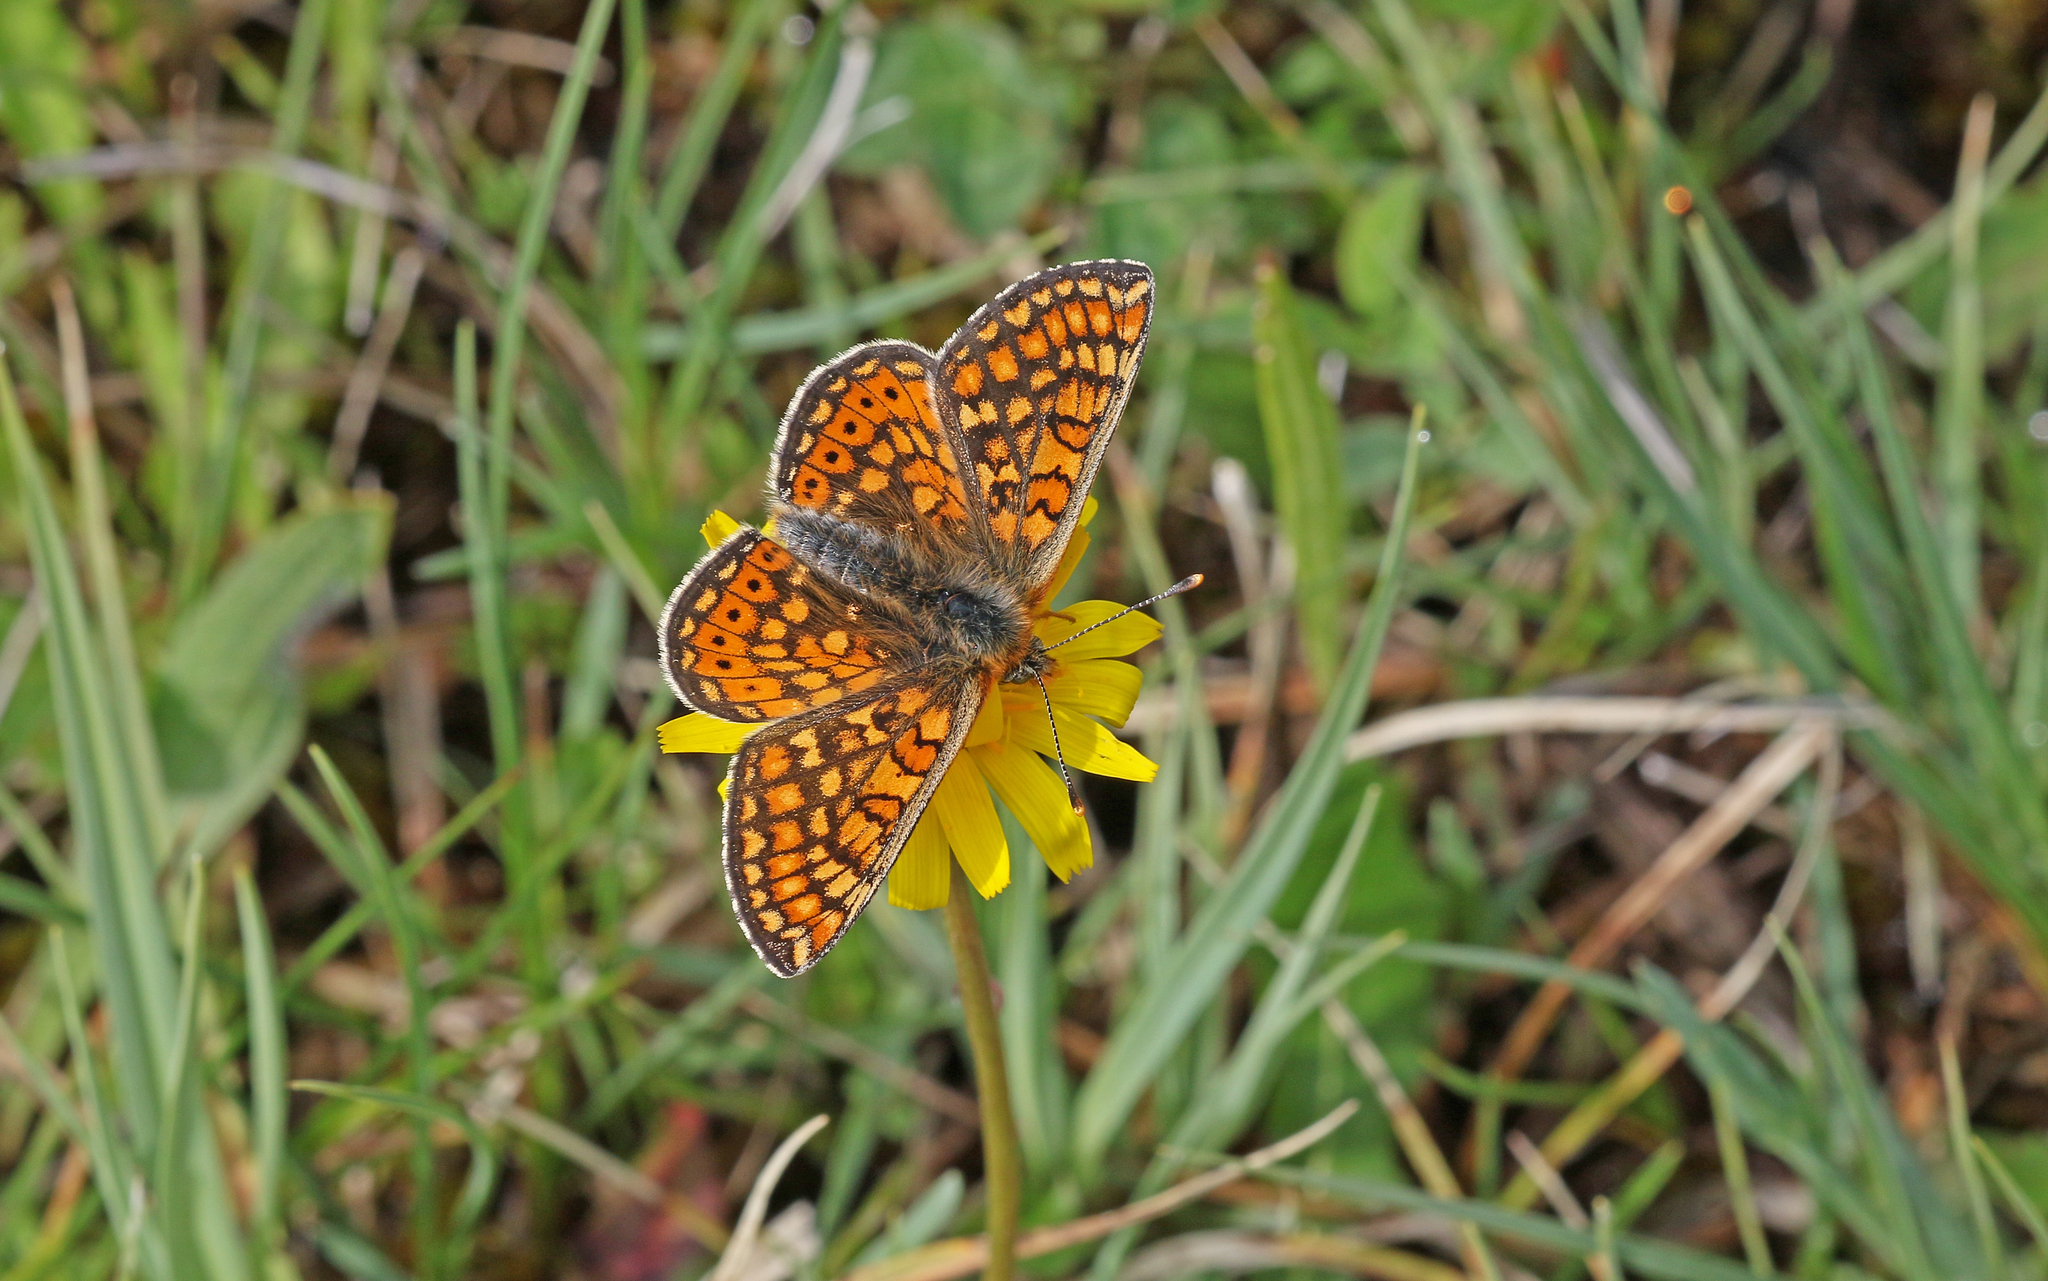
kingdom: Animalia
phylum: Arthropoda
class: Insecta
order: Lepidoptera
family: Nymphalidae
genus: Euphydryas
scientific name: Euphydryas aurinia
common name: Marsh fritillary
